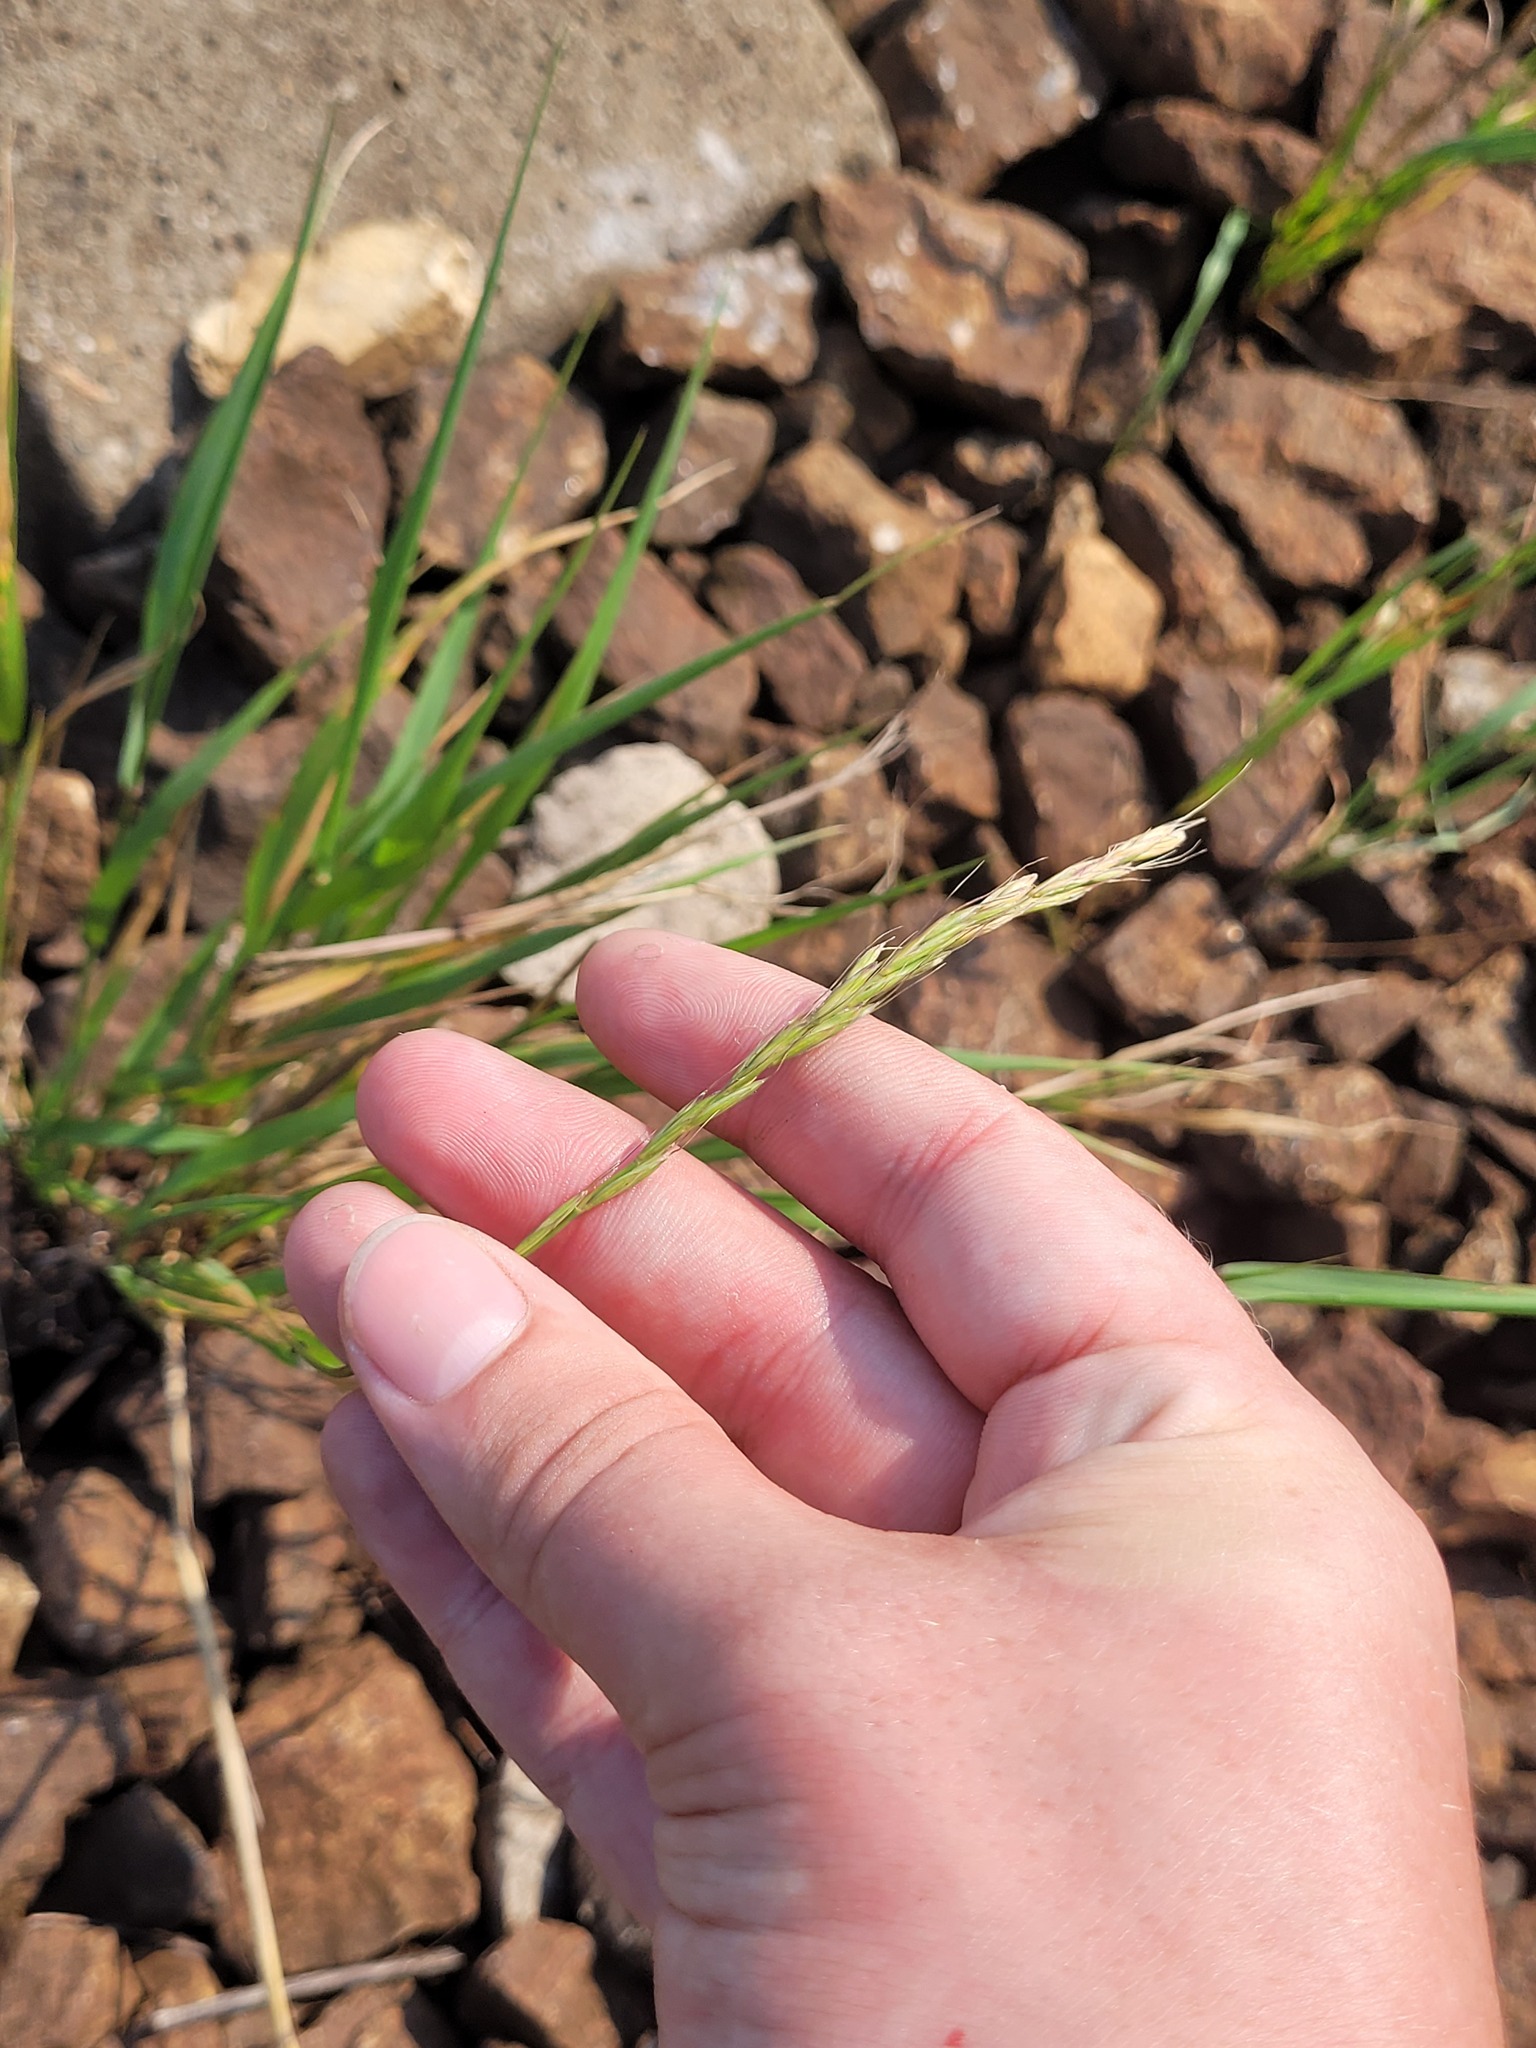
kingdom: Plantae
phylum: Tracheophyta
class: Liliopsida
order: Poales
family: Poaceae
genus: Elymus
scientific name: Elymus caninus
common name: Bearded couch
